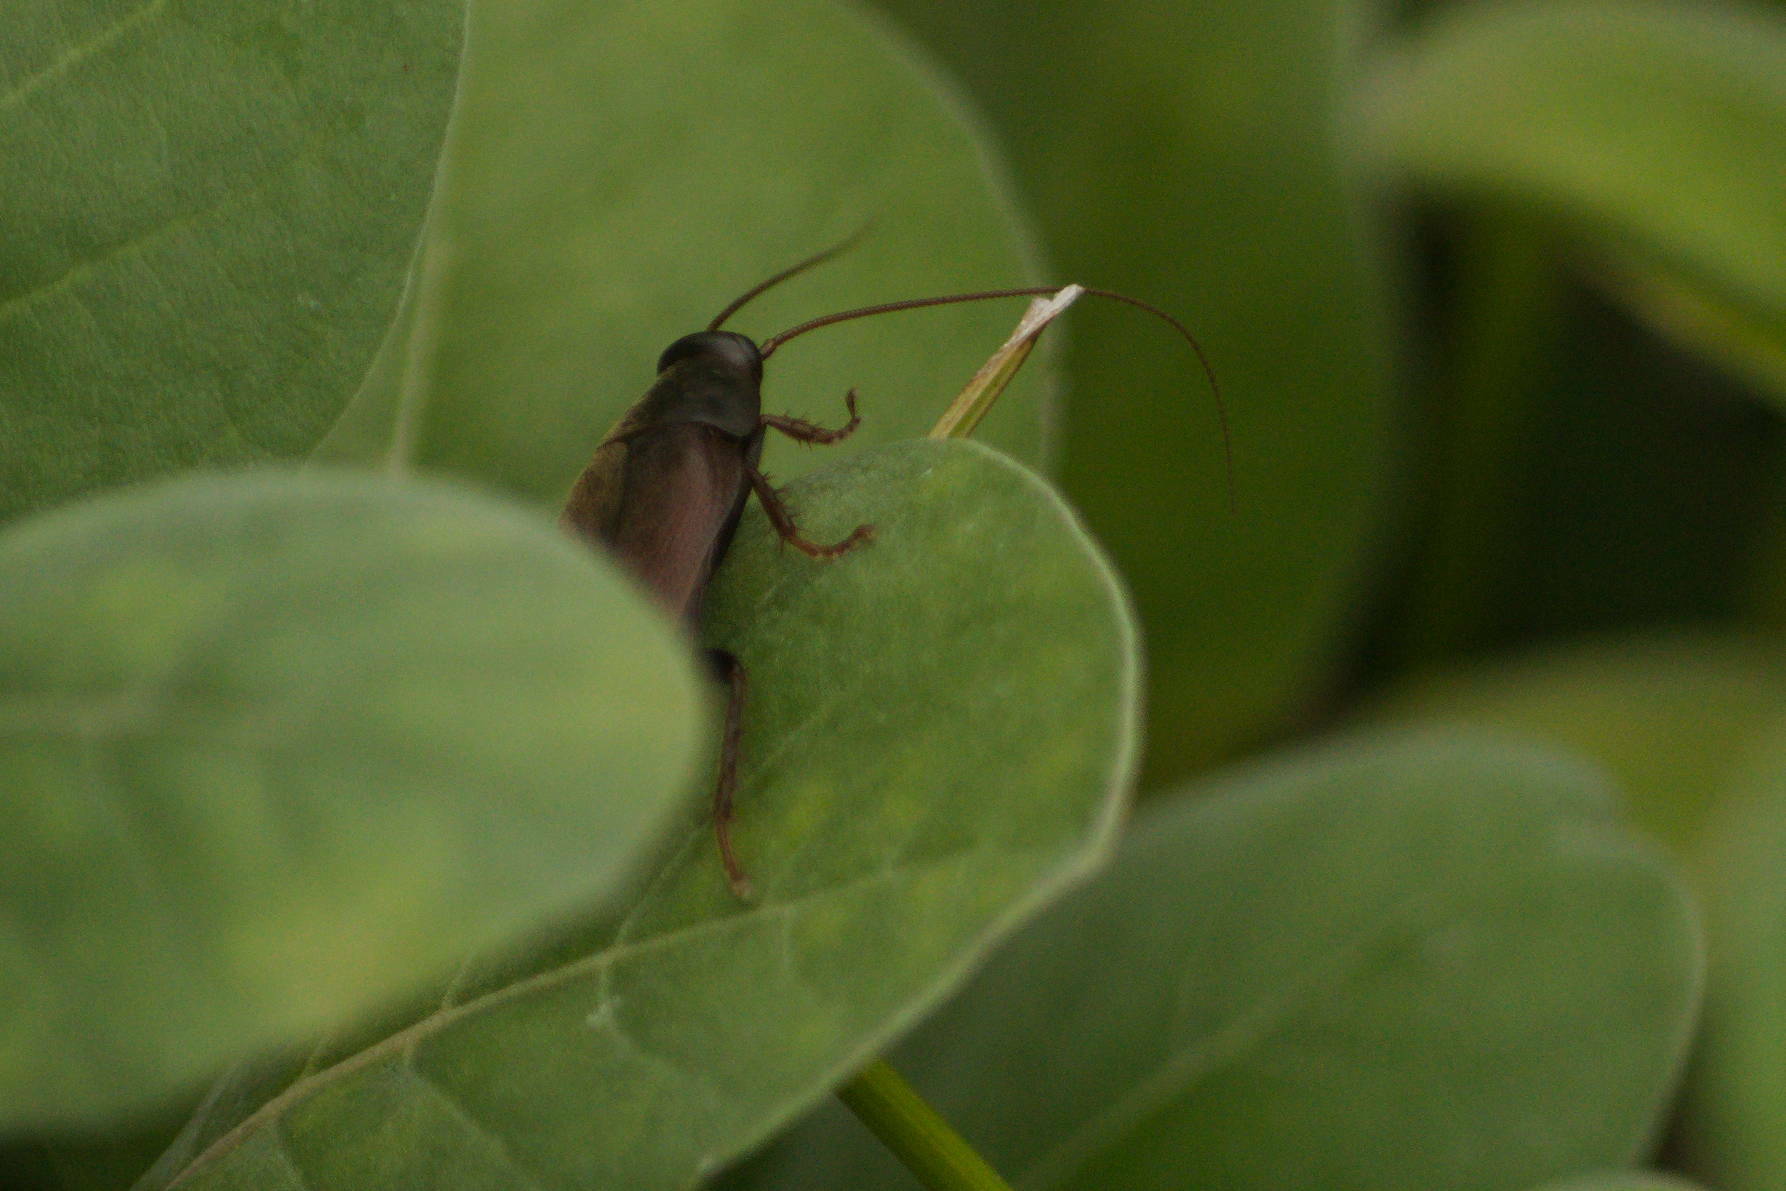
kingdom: Animalia
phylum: Arthropoda
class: Insecta
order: Blattodea
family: Blaberidae
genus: Diploptera
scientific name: Diploptera punctata
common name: Pacific beetle cockroach
